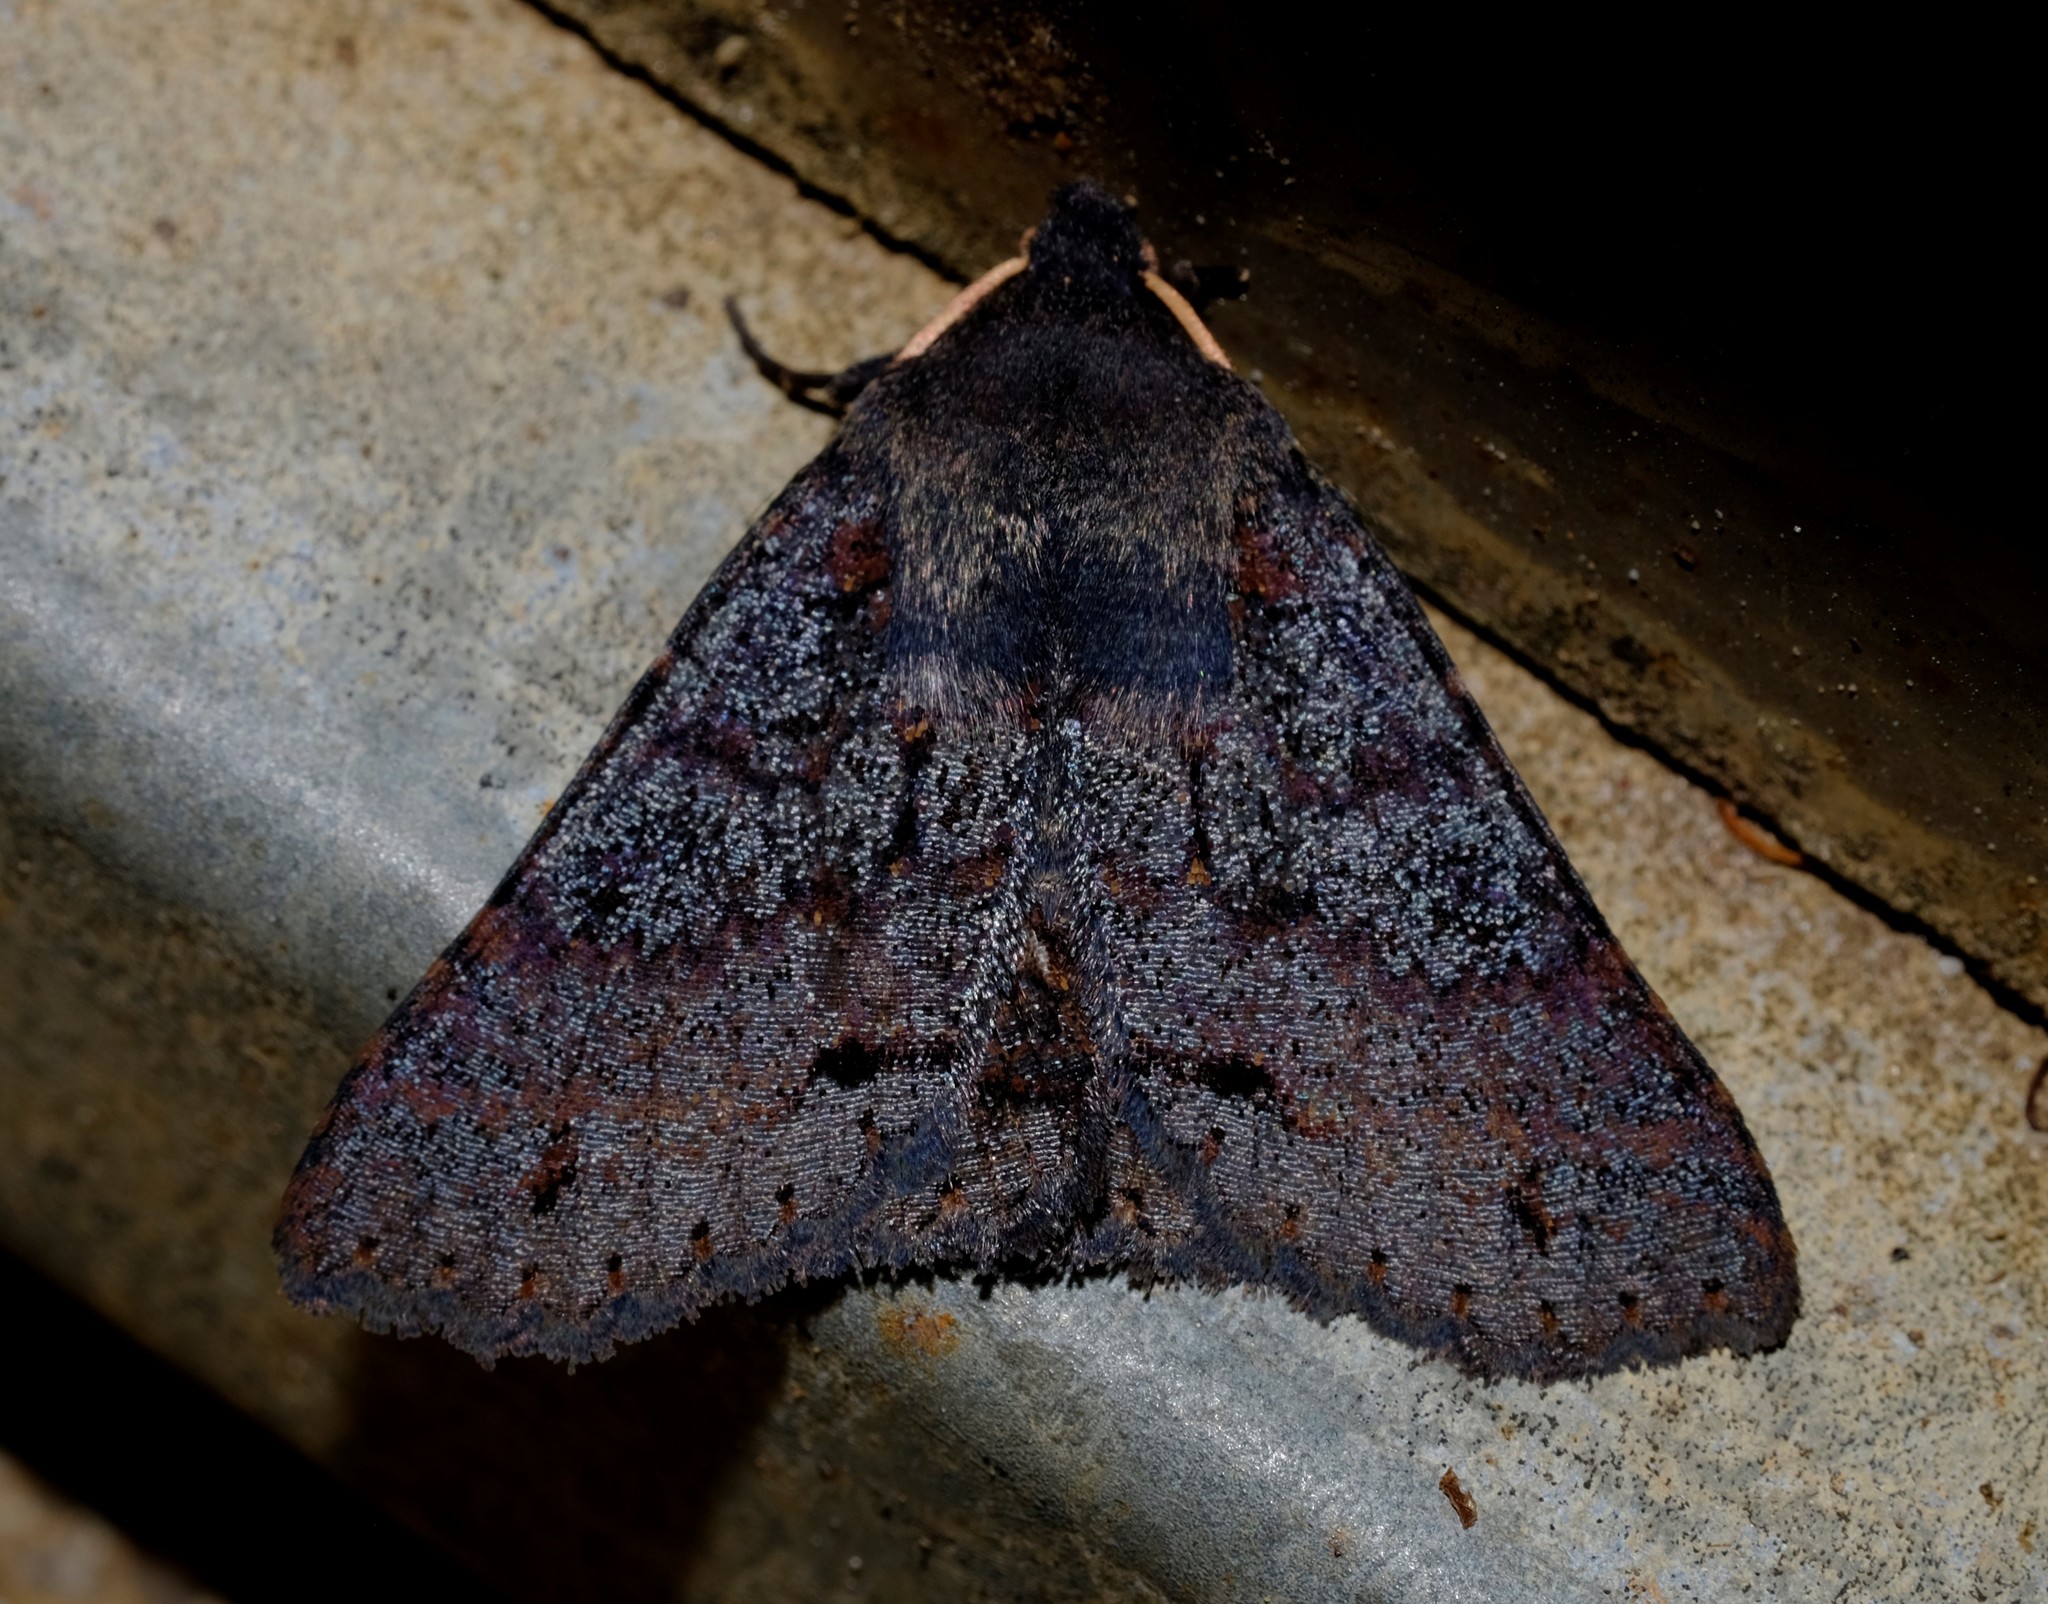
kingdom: Animalia
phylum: Arthropoda
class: Insecta
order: Lepidoptera
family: Erebidae
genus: Praxis
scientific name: Praxis difficilis
